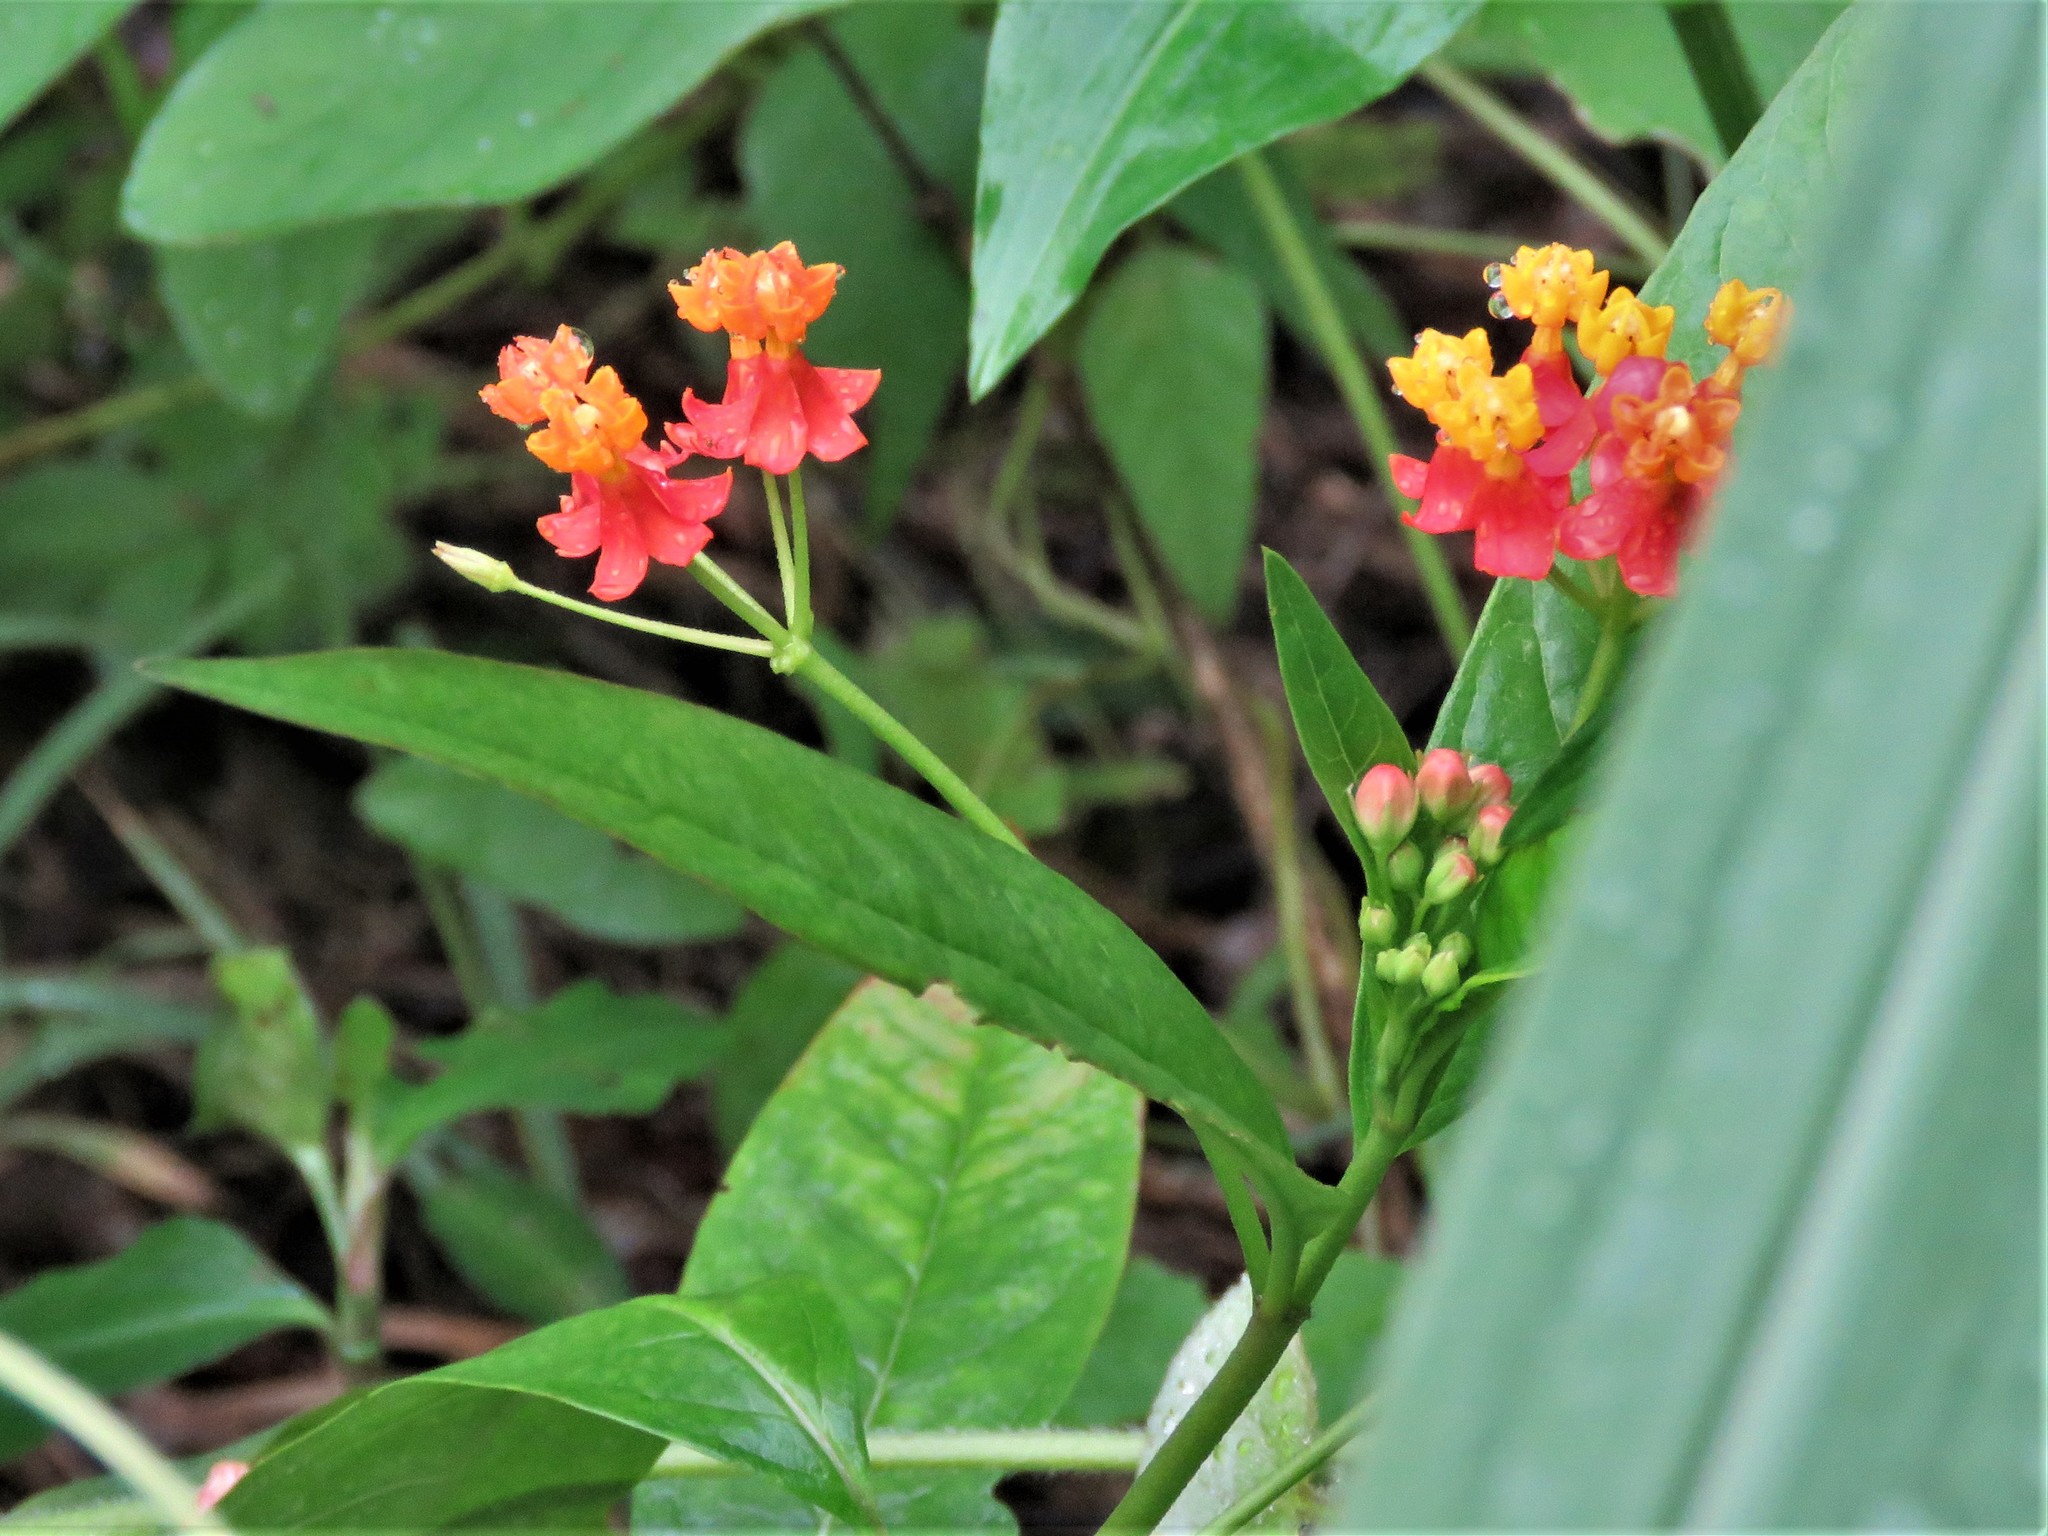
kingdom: Plantae
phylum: Tracheophyta
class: Magnoliopsida
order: Gentianales
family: Apocynaceae
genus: Asclepias
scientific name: Asclepias curassavica
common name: Bloodflower
